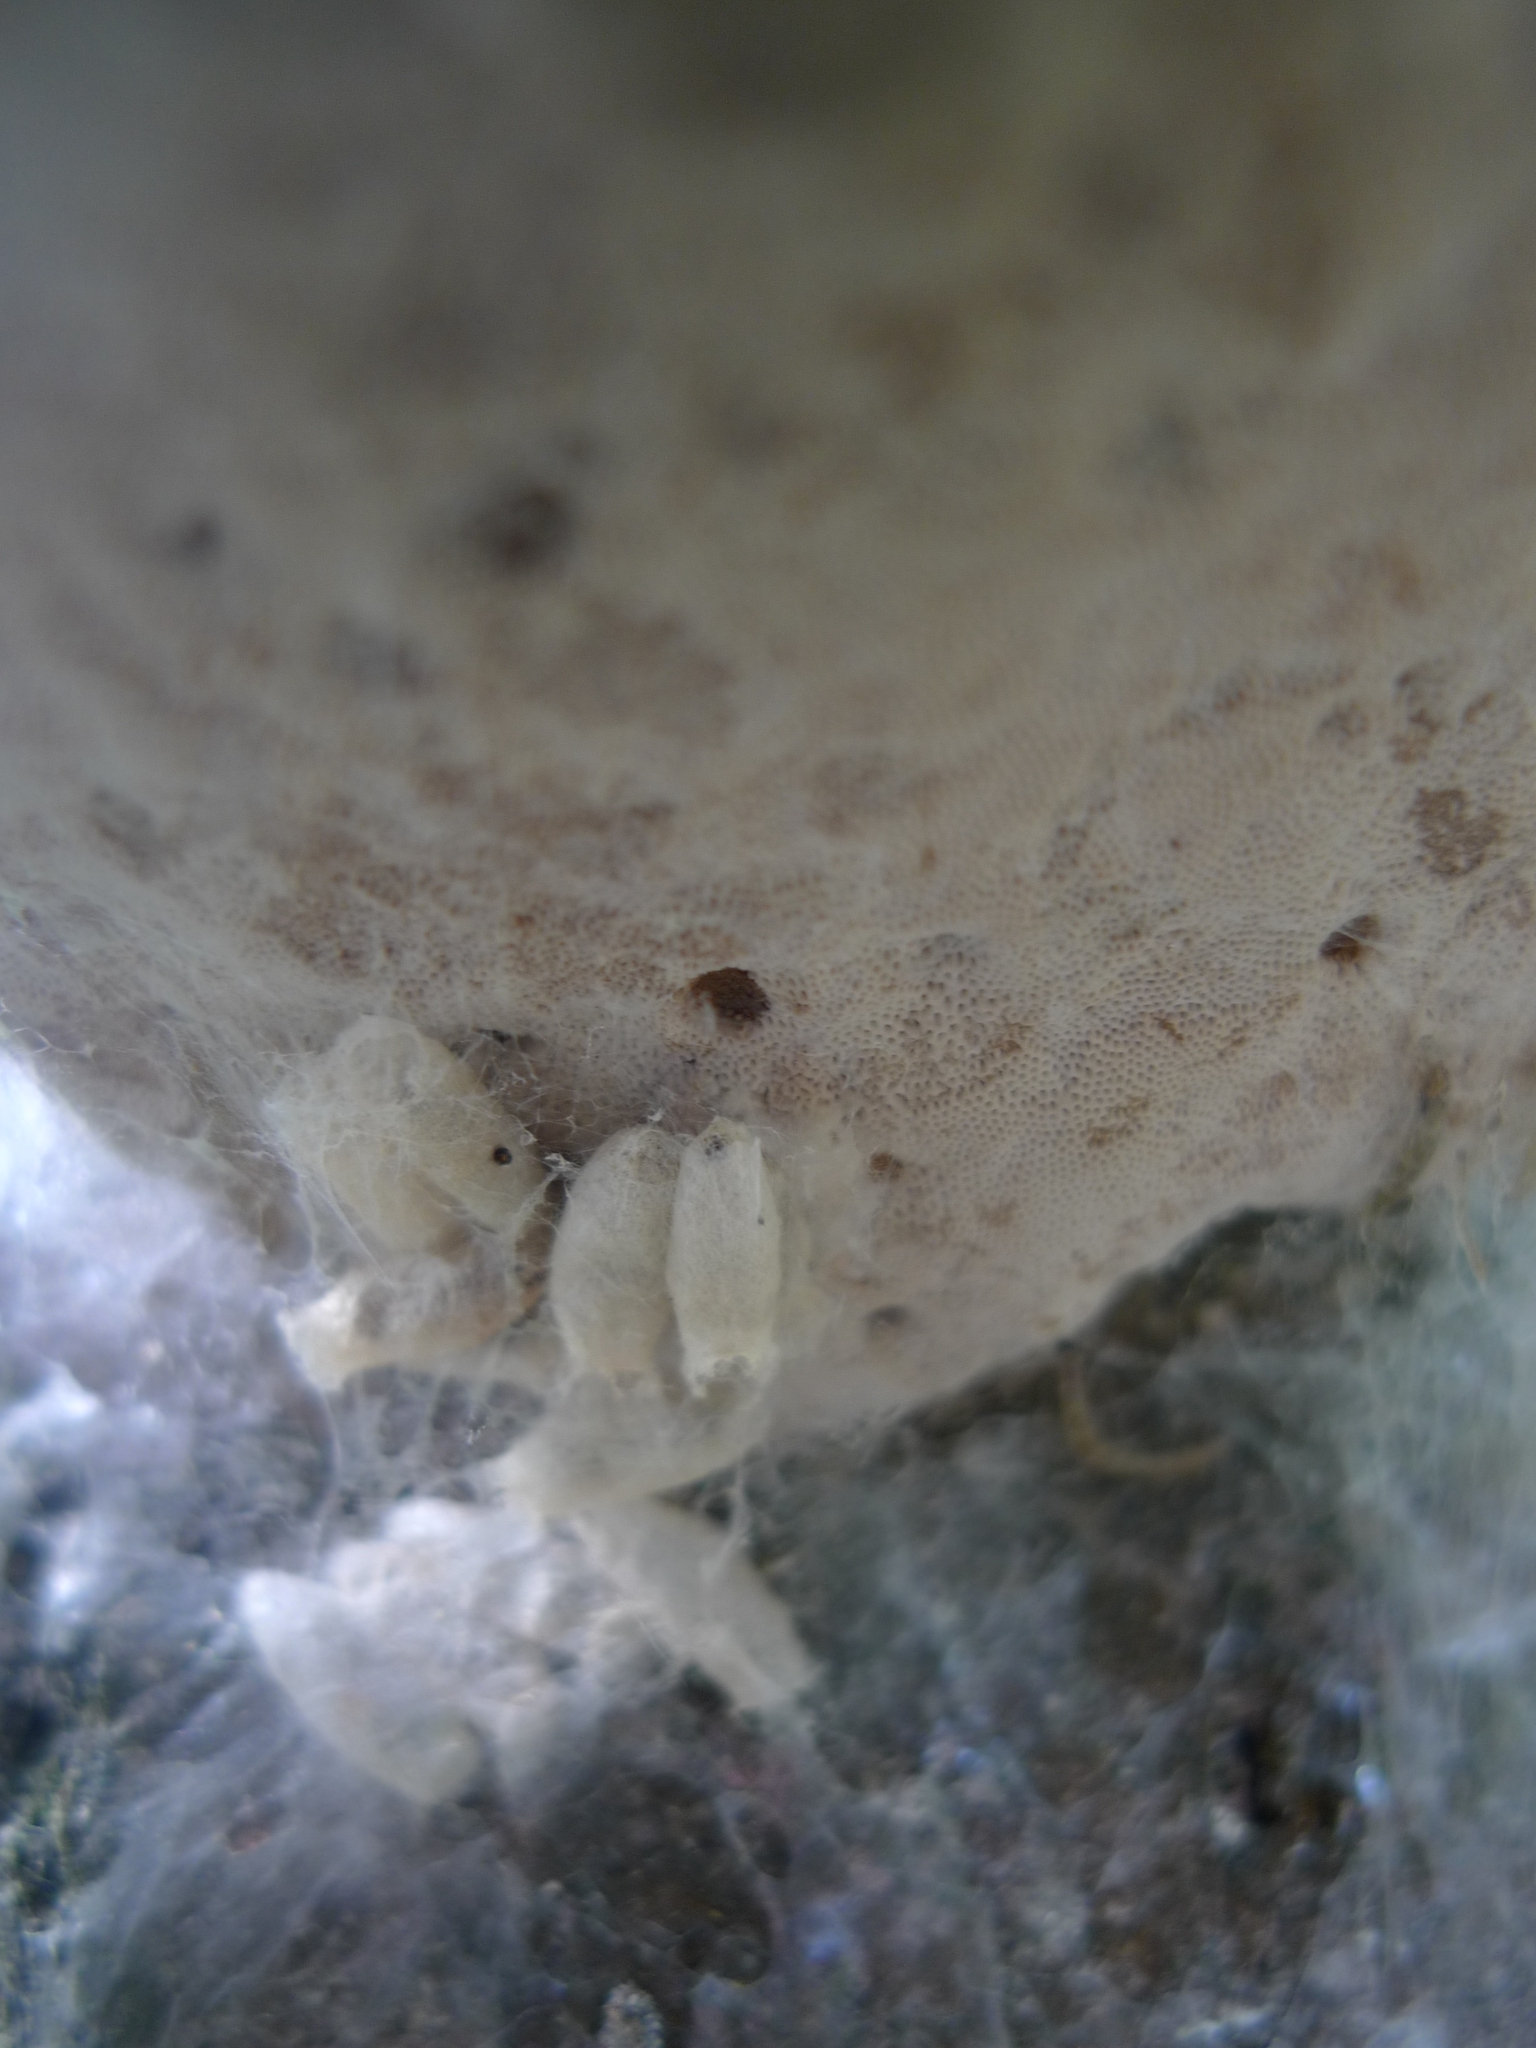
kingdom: Fungi
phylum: Basidiomycota
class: Agaricomycetes
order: Polyporales
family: Polyporaceae
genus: Fomes
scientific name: Fomes fomentarius
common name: Hoof fungus
